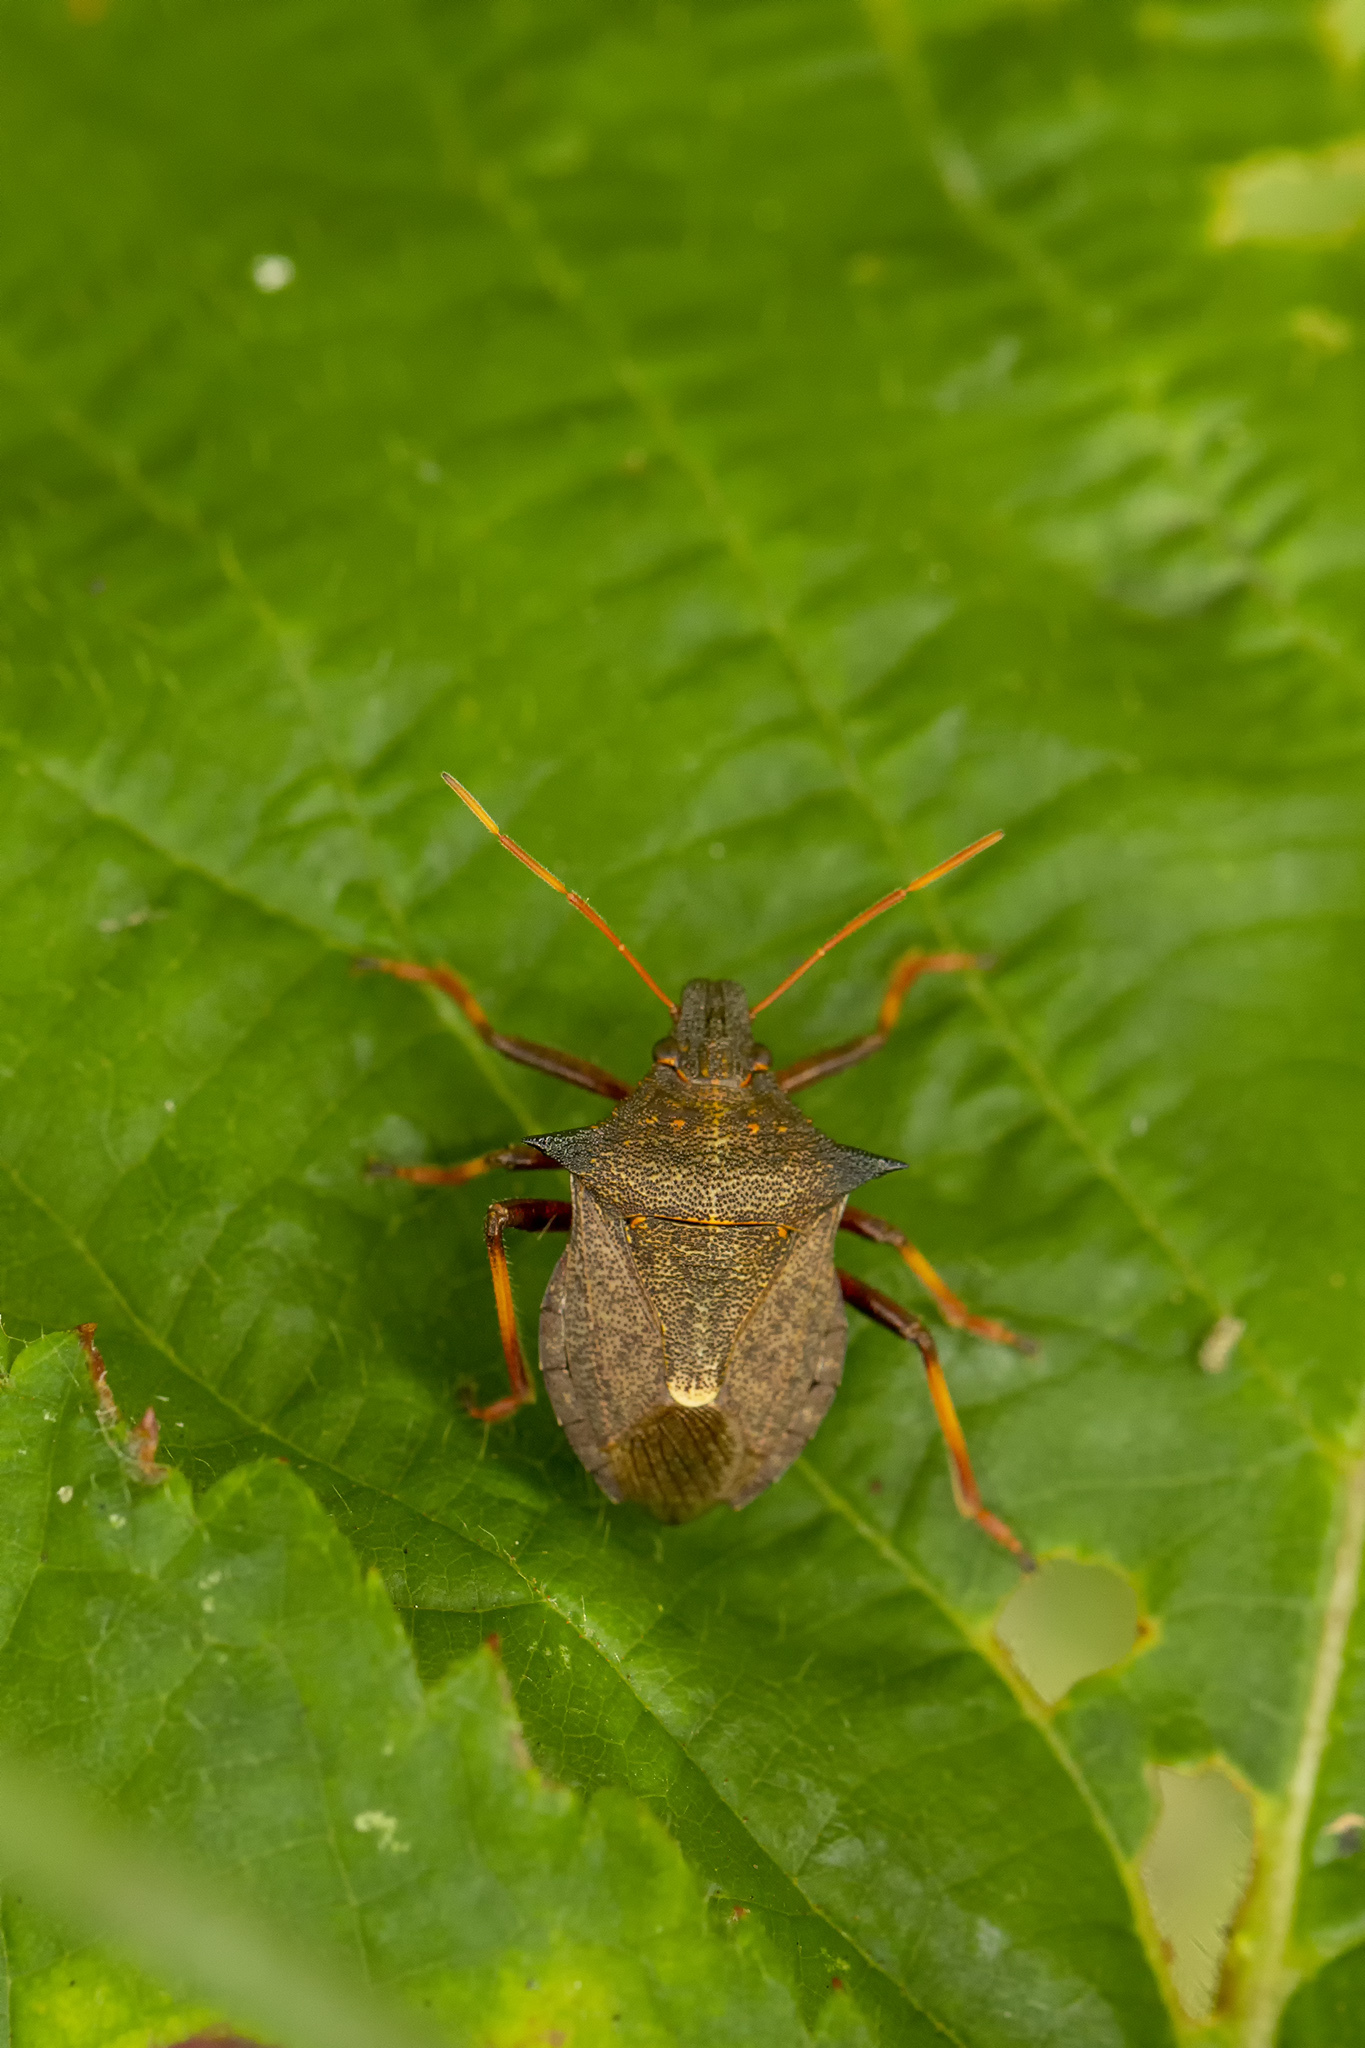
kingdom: Animalia
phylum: Arthropoda
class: Insecta
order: Hemiptera
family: Pentatomidae
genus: Picromerus
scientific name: Picromerus bidens
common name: Spiked shieldbug
